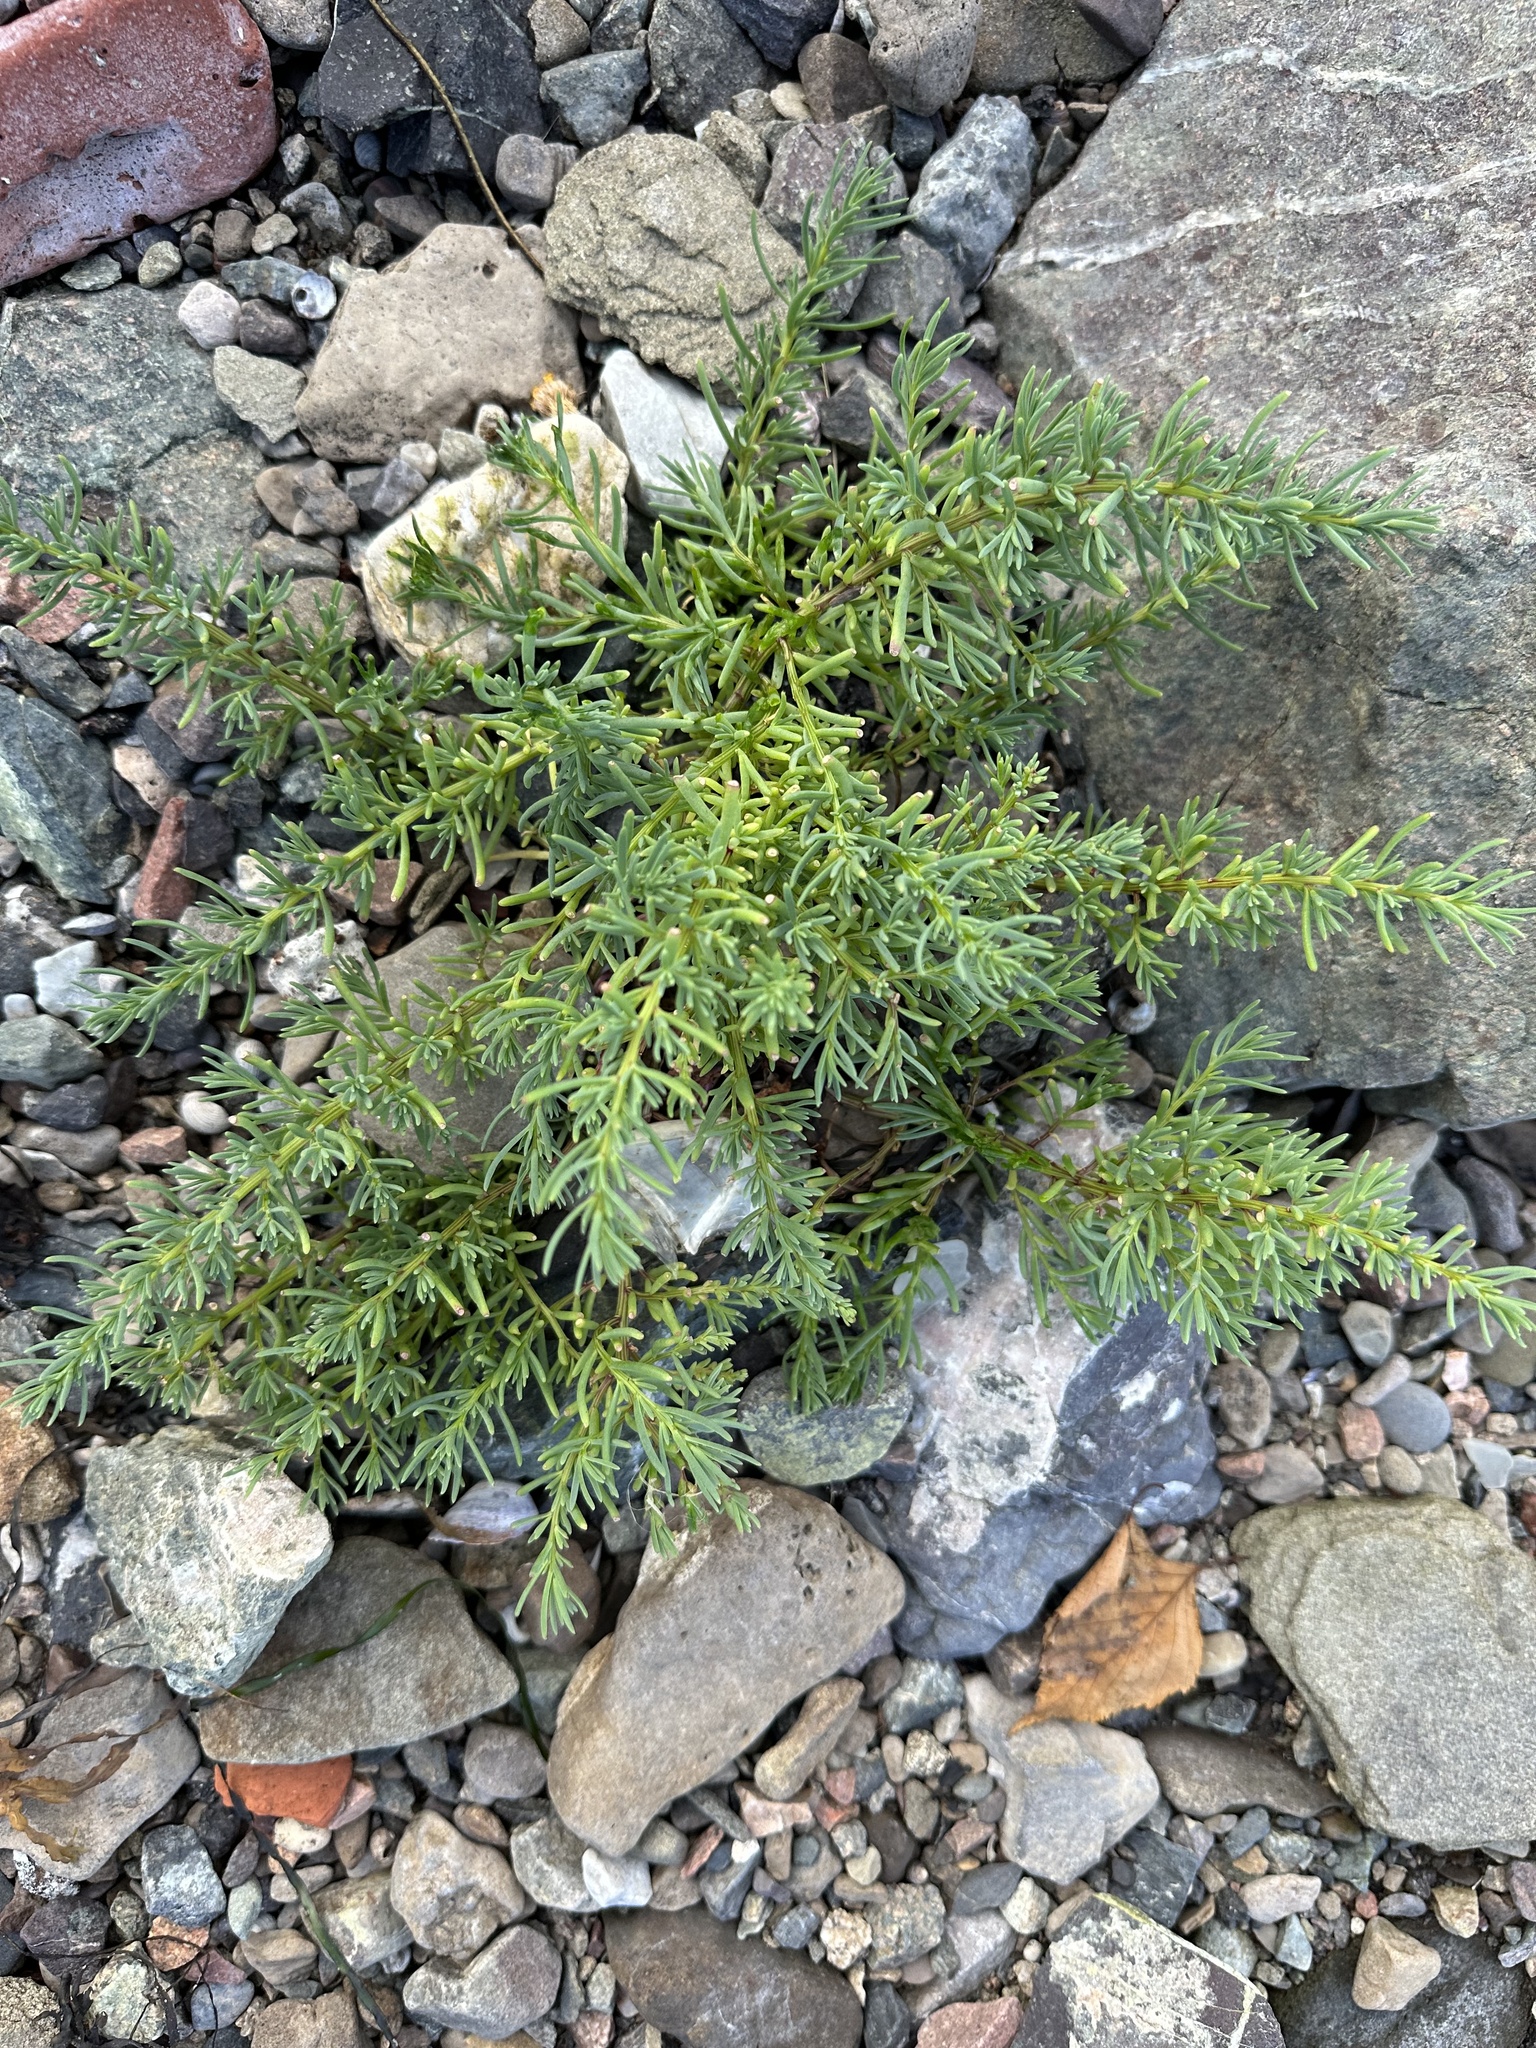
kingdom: Plantae
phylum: Tracheophyta
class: Magnoliopsida
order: Caryophyllales
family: Amaranthaceae
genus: Suaeda
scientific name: Suaeda maritima
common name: Annual sea-blite
